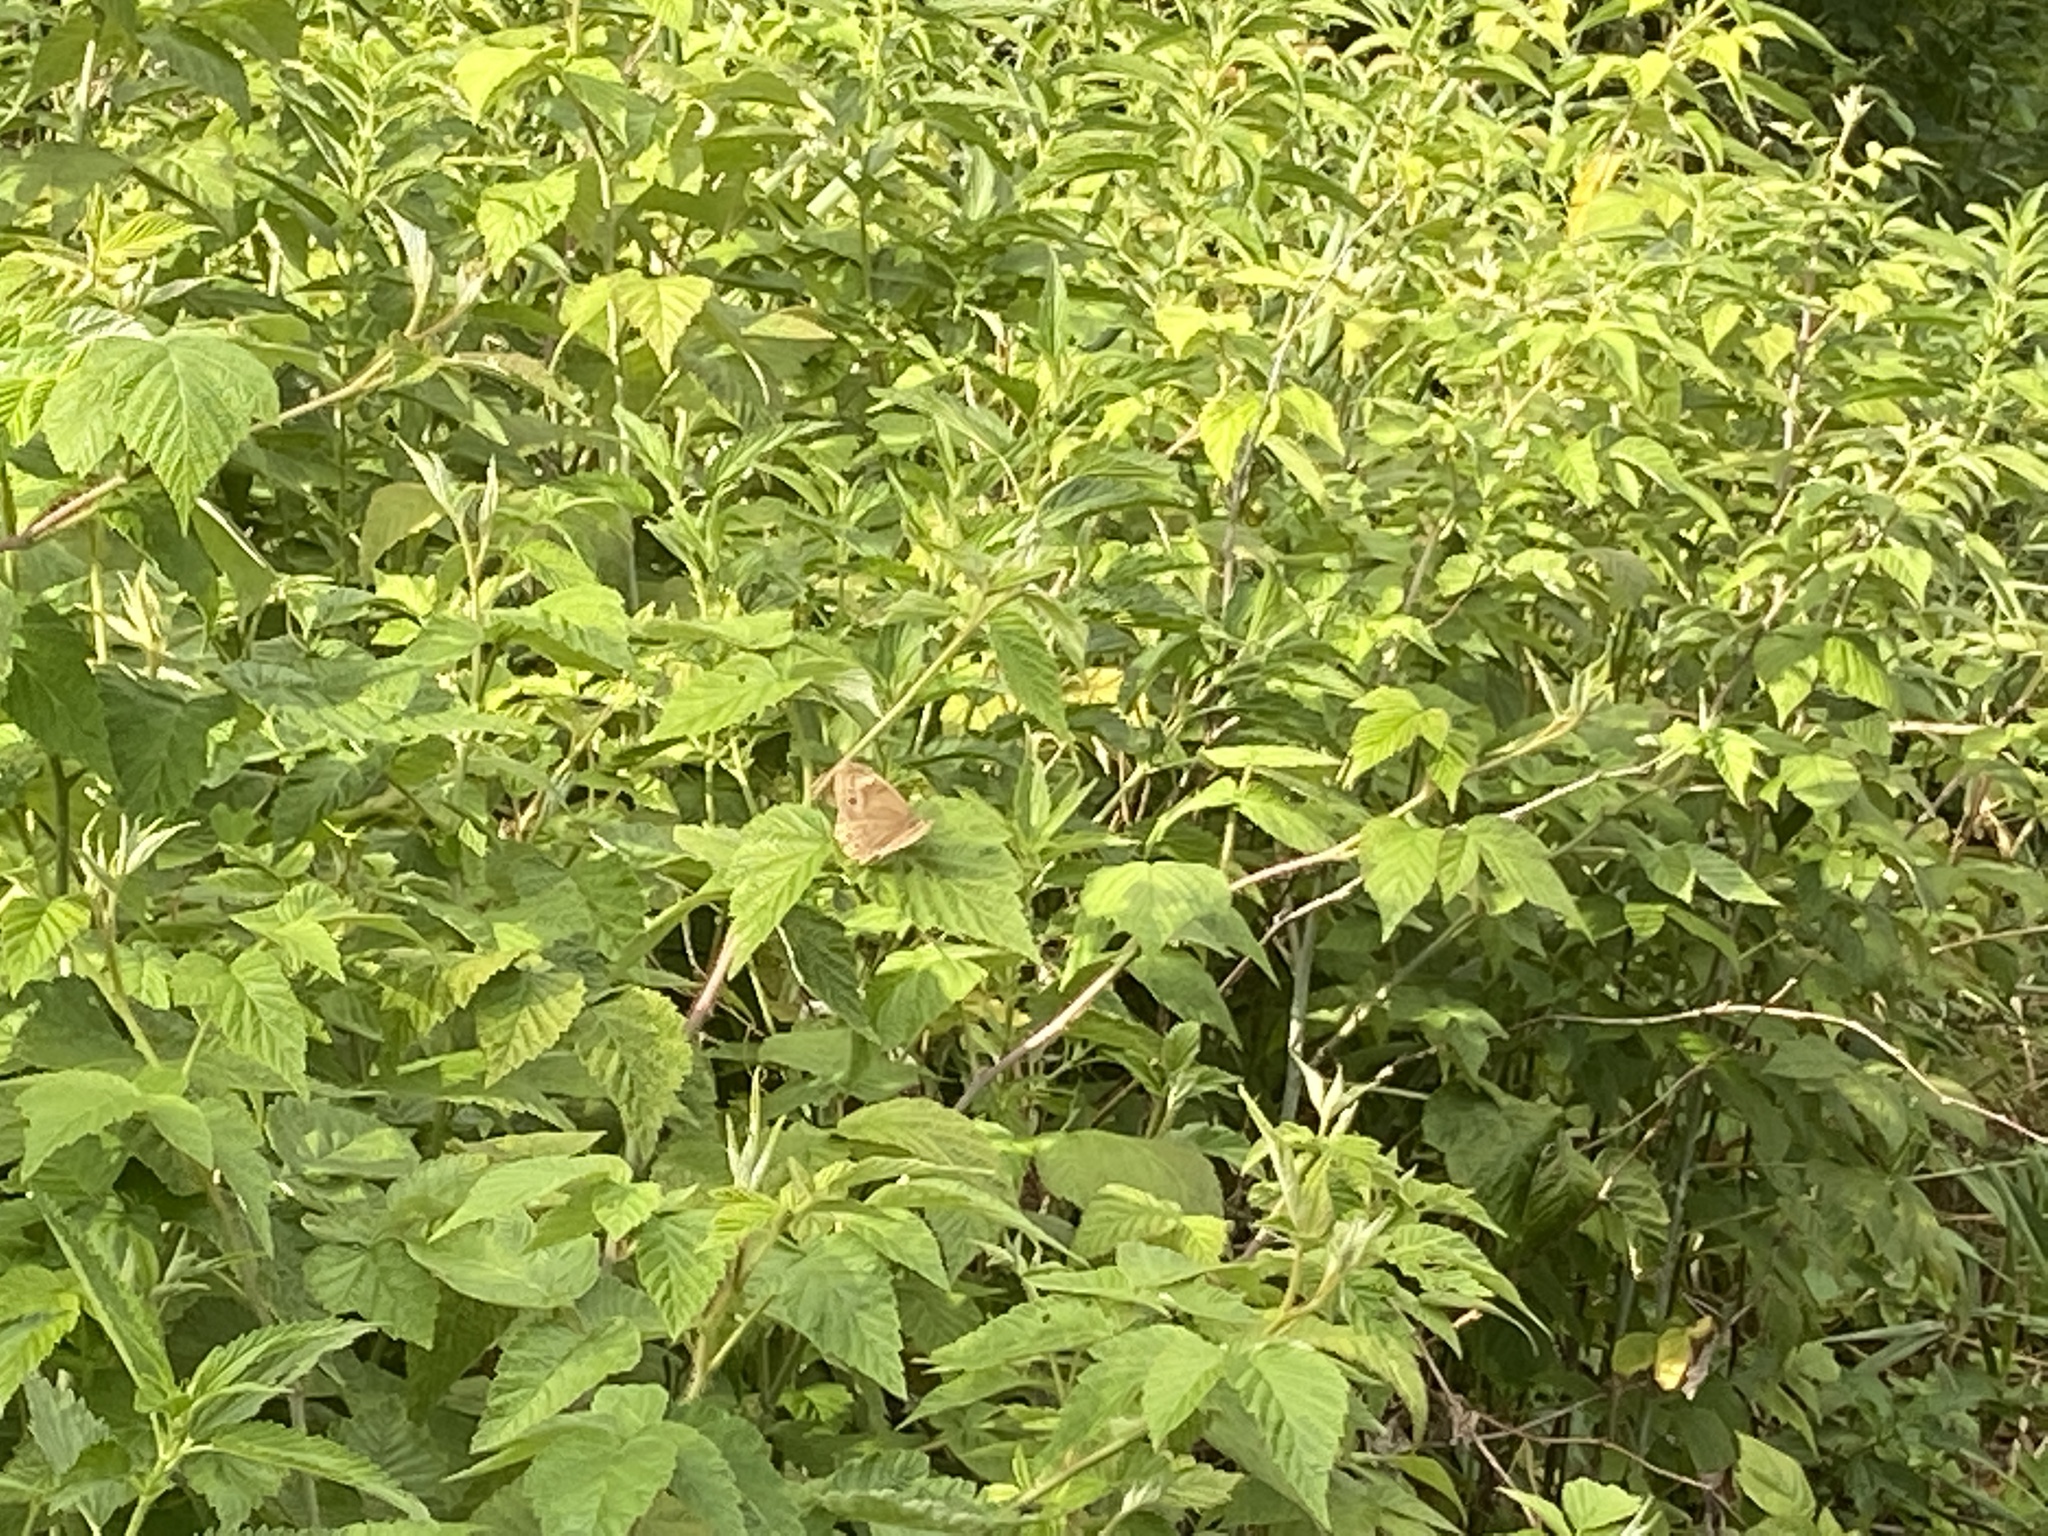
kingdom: Animalia
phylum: Arthropoda
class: Insecta
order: Lepidoptera
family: Nymphalidae
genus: Lethe
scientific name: Lethe anthedon
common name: Northern pearly-eye
